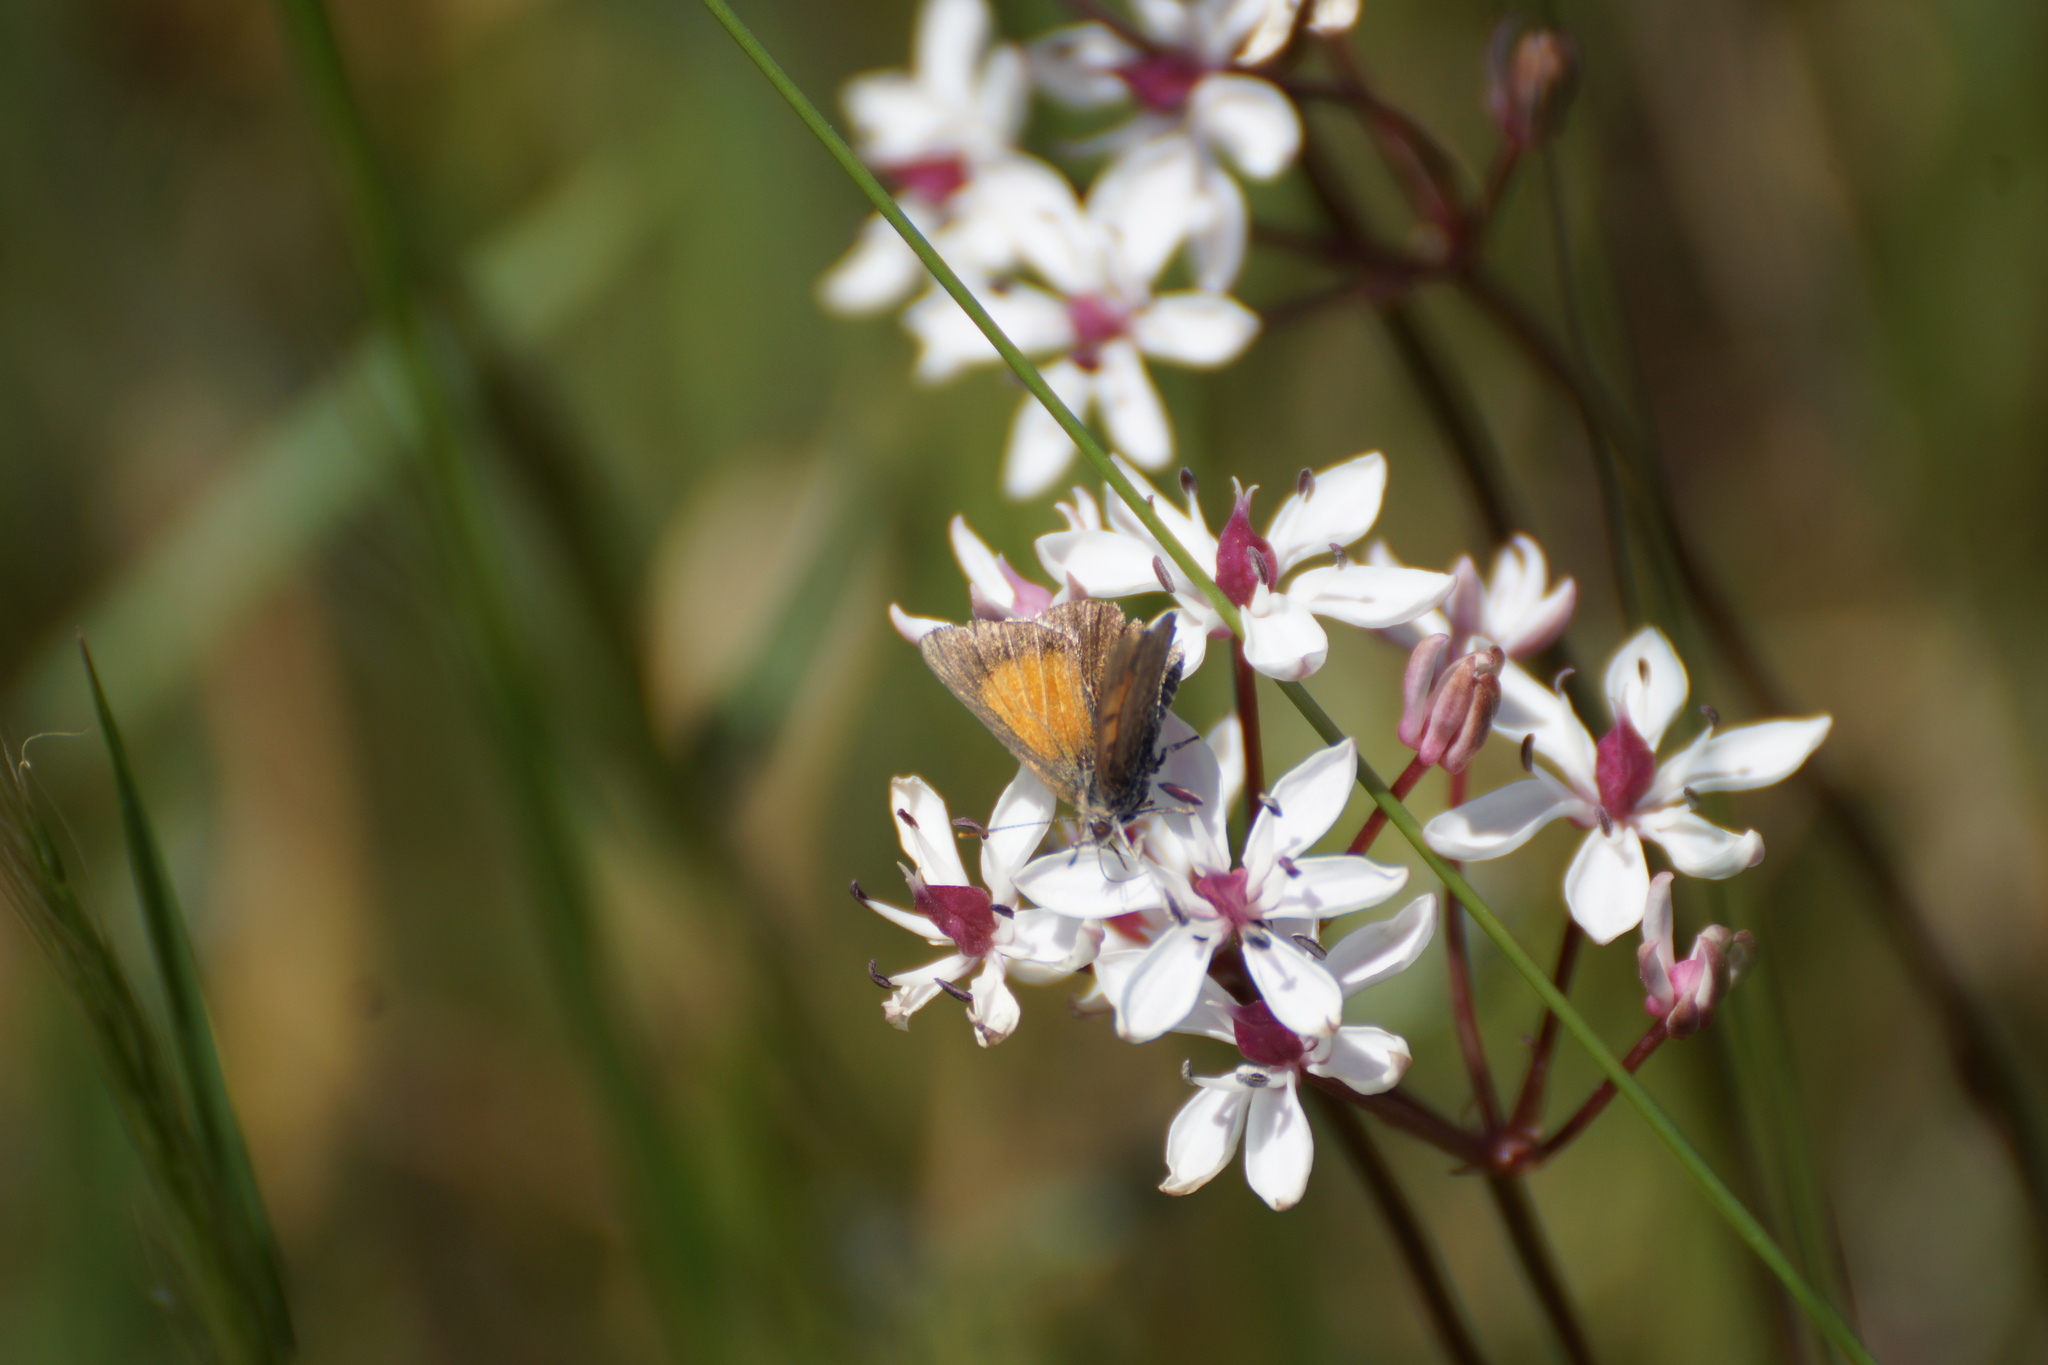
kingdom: Animalia
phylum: Arthropoda
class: Insecta
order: Lepidoptera
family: Lycaenidae
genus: Lucia
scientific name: Lucia limbaria
